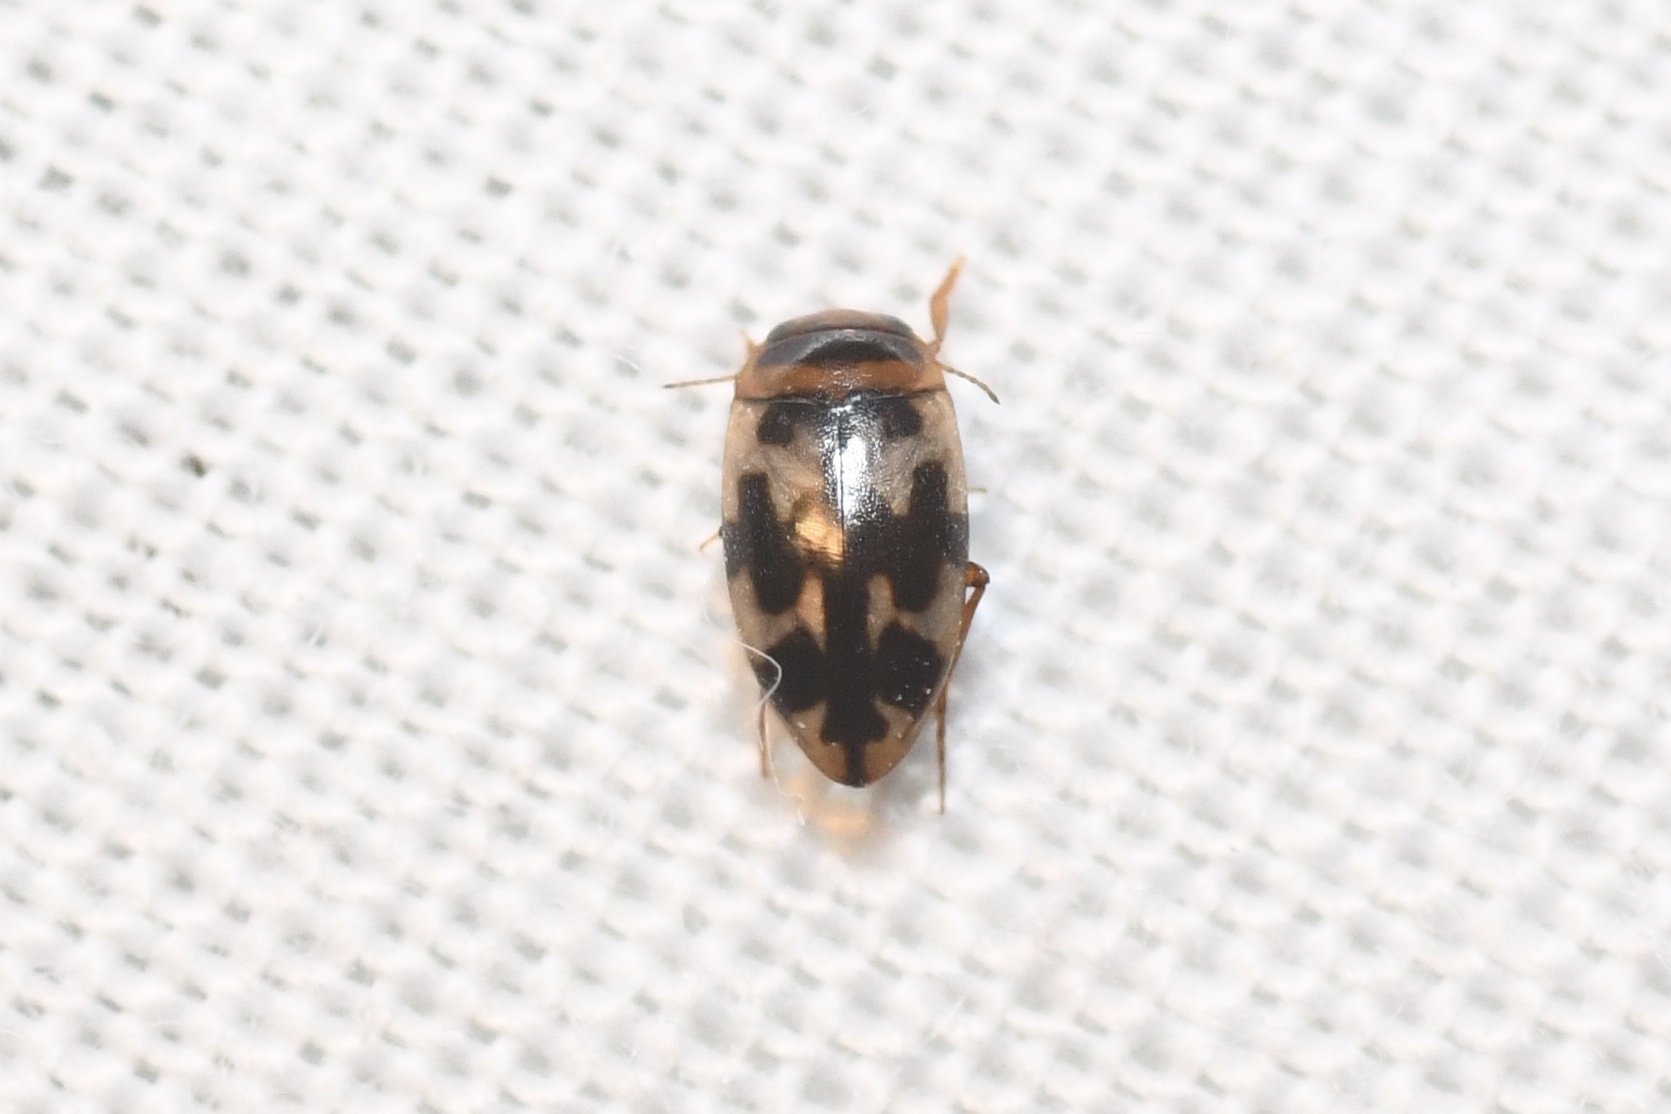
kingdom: Animalia
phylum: Arthropoda
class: Insecta
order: Coleoptera
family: Dytiscidae
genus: Heterosternuta
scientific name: Heterosternuta wickhami
